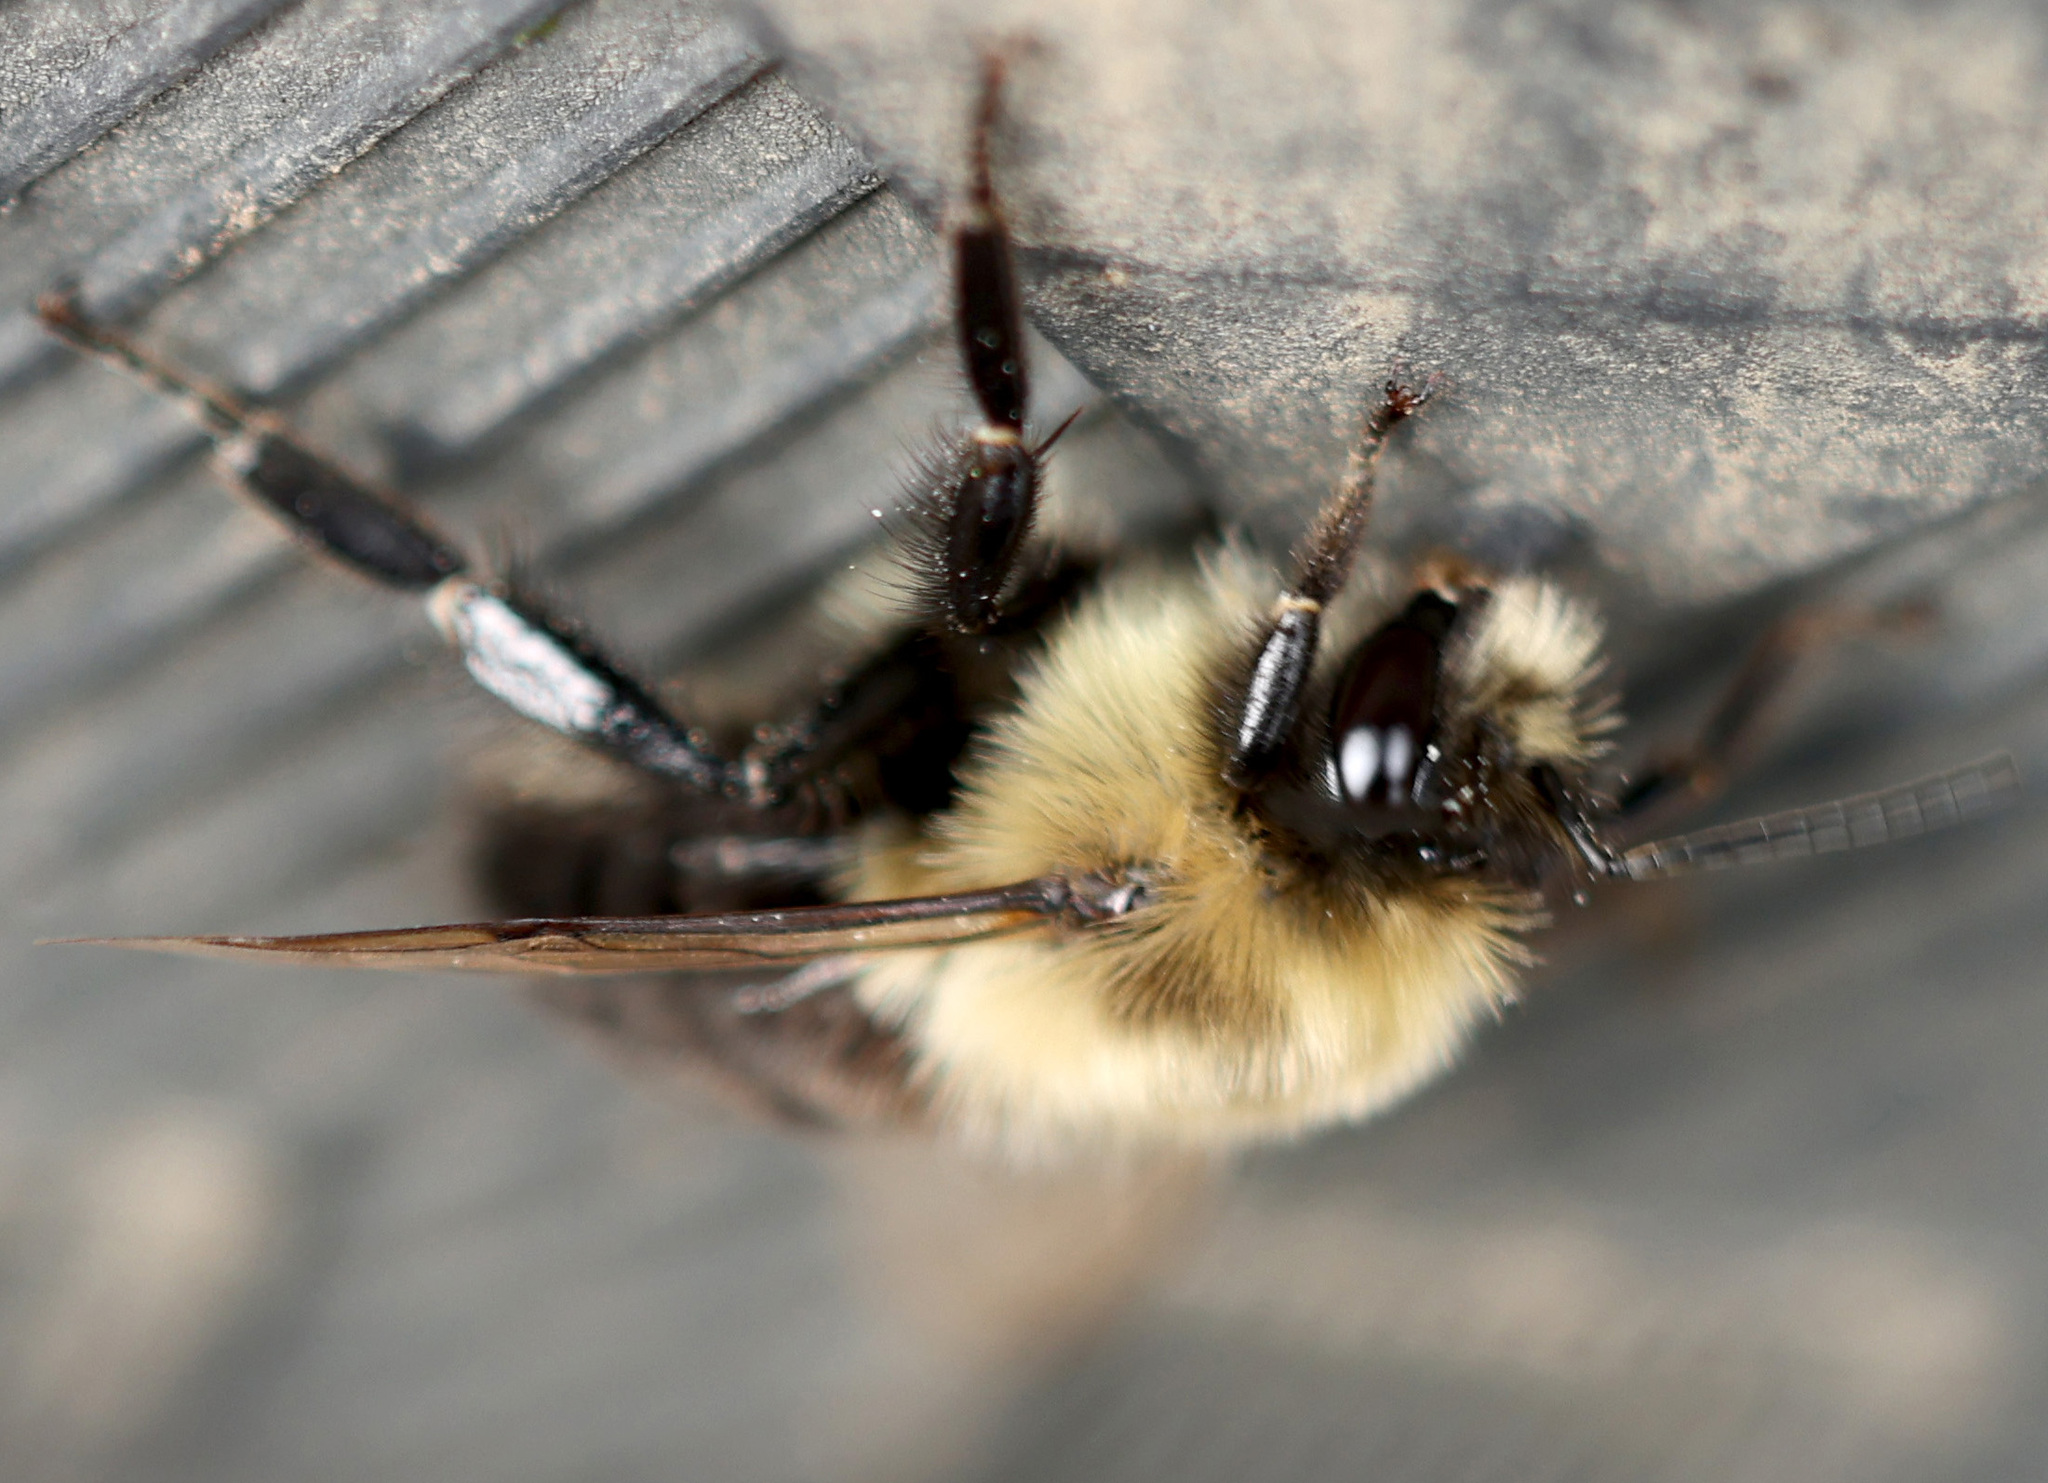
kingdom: Animalia
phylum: Arthropoda
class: Insecta
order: Hymenoptera
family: Apidae
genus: Bombus
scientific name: Bombus impatiens
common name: Common eastern bumble bee
